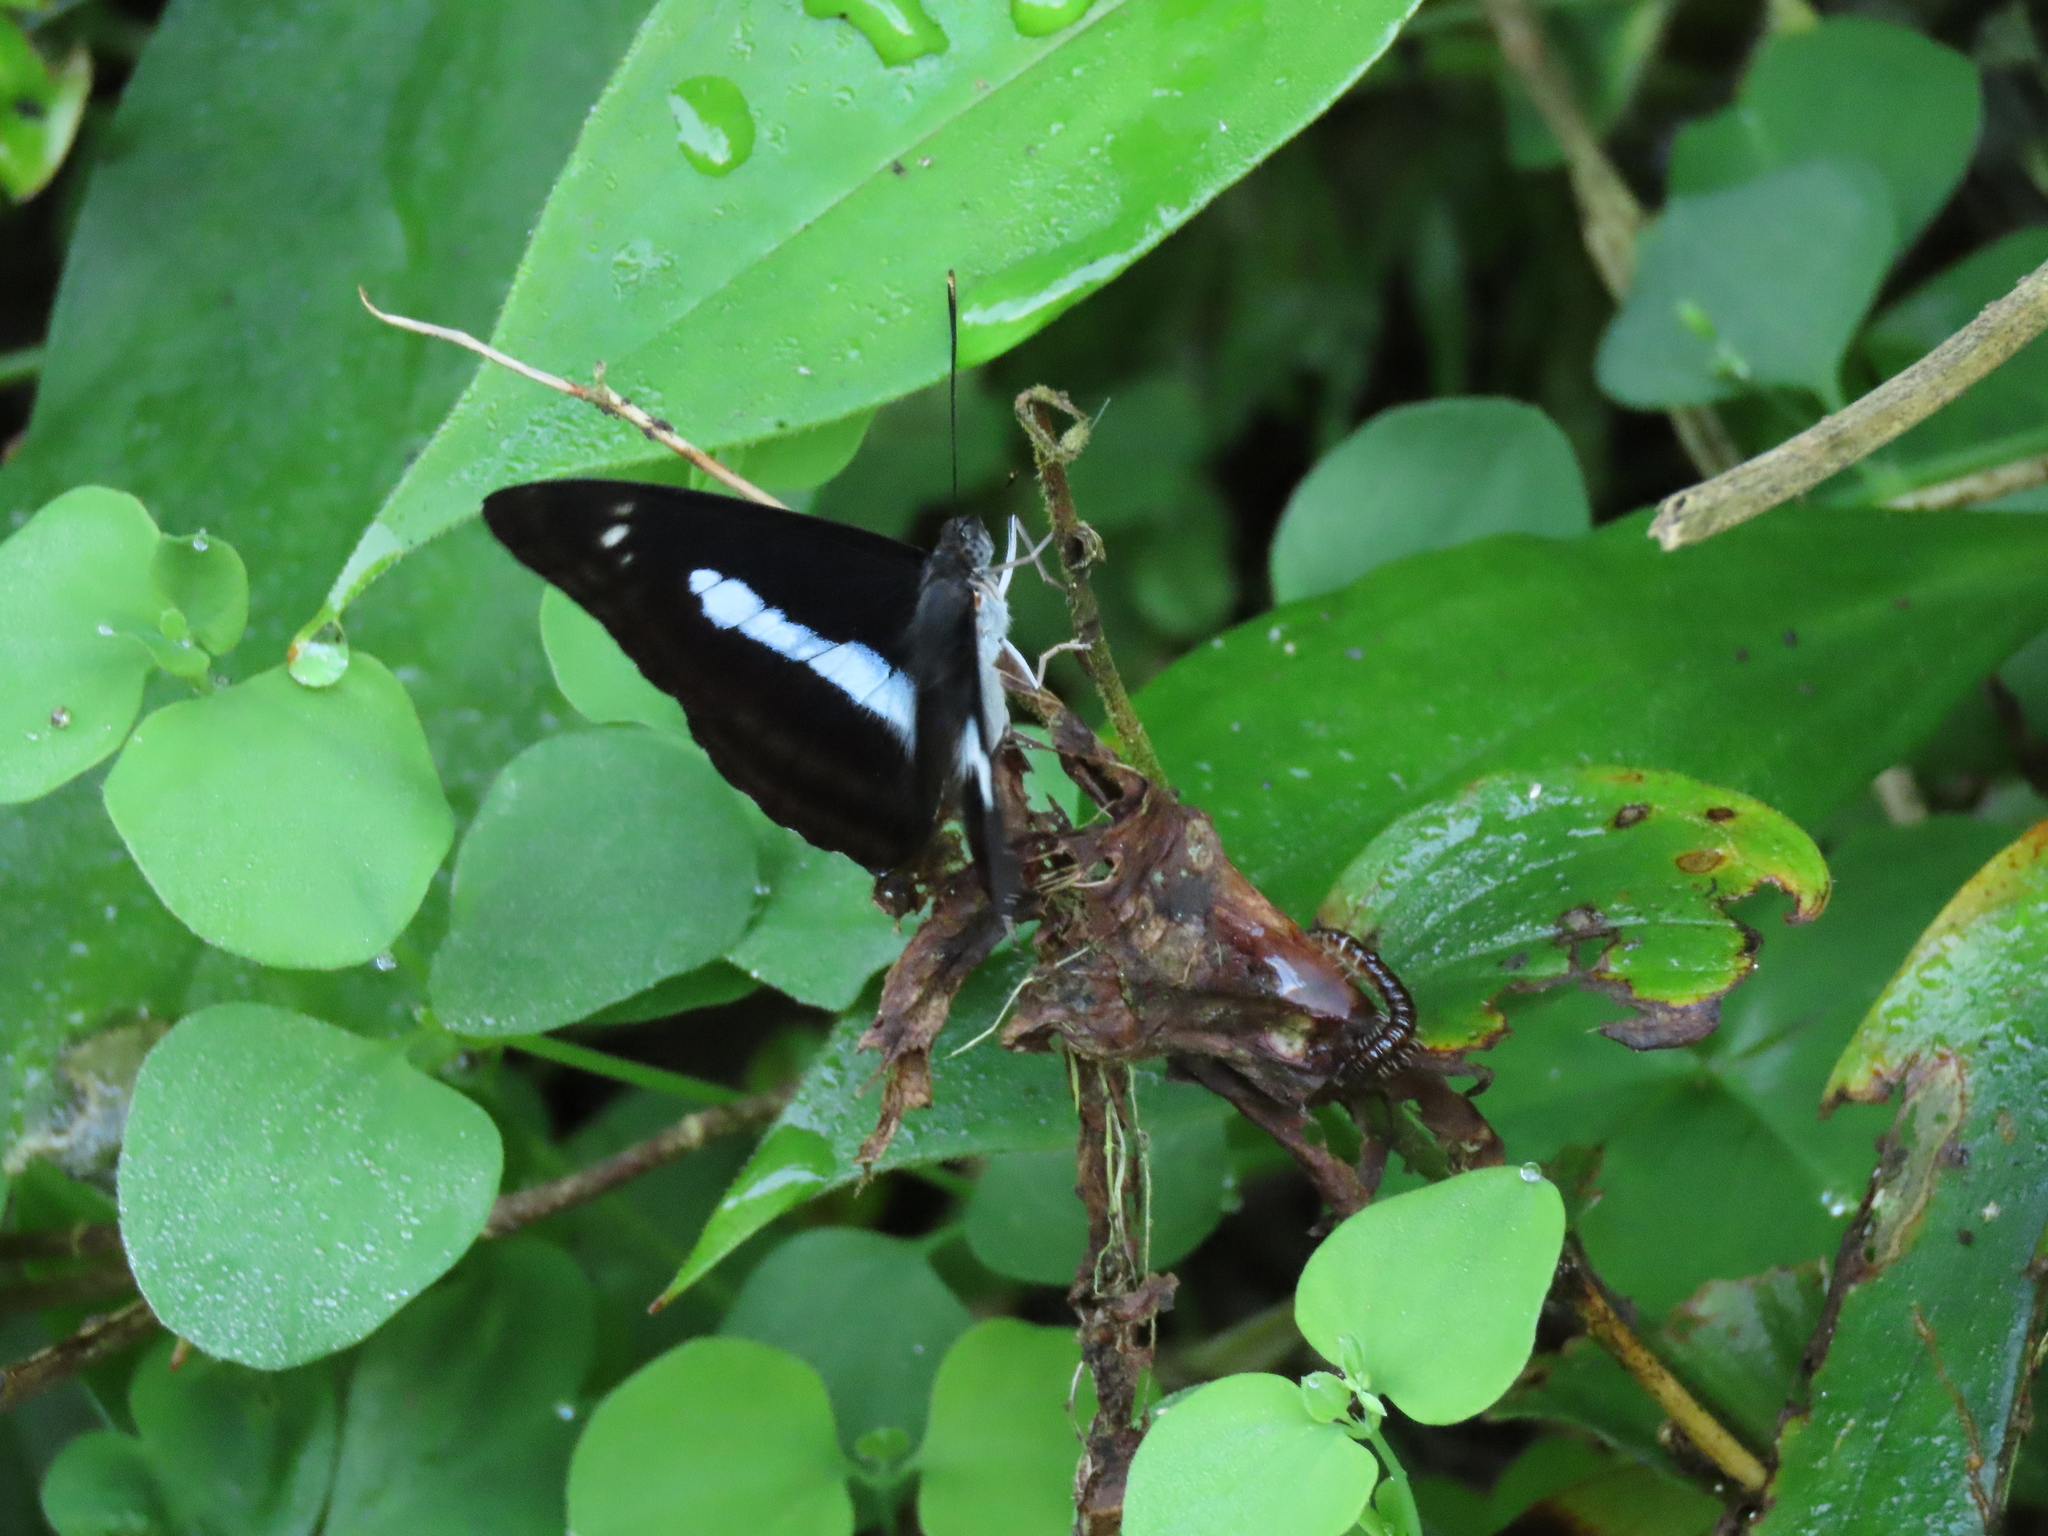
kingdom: Animalia
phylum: Arthropoda
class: Insecta
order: Lepidoptera
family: Nymphalidae
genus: Parathyma
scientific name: Parathyma selenophora
